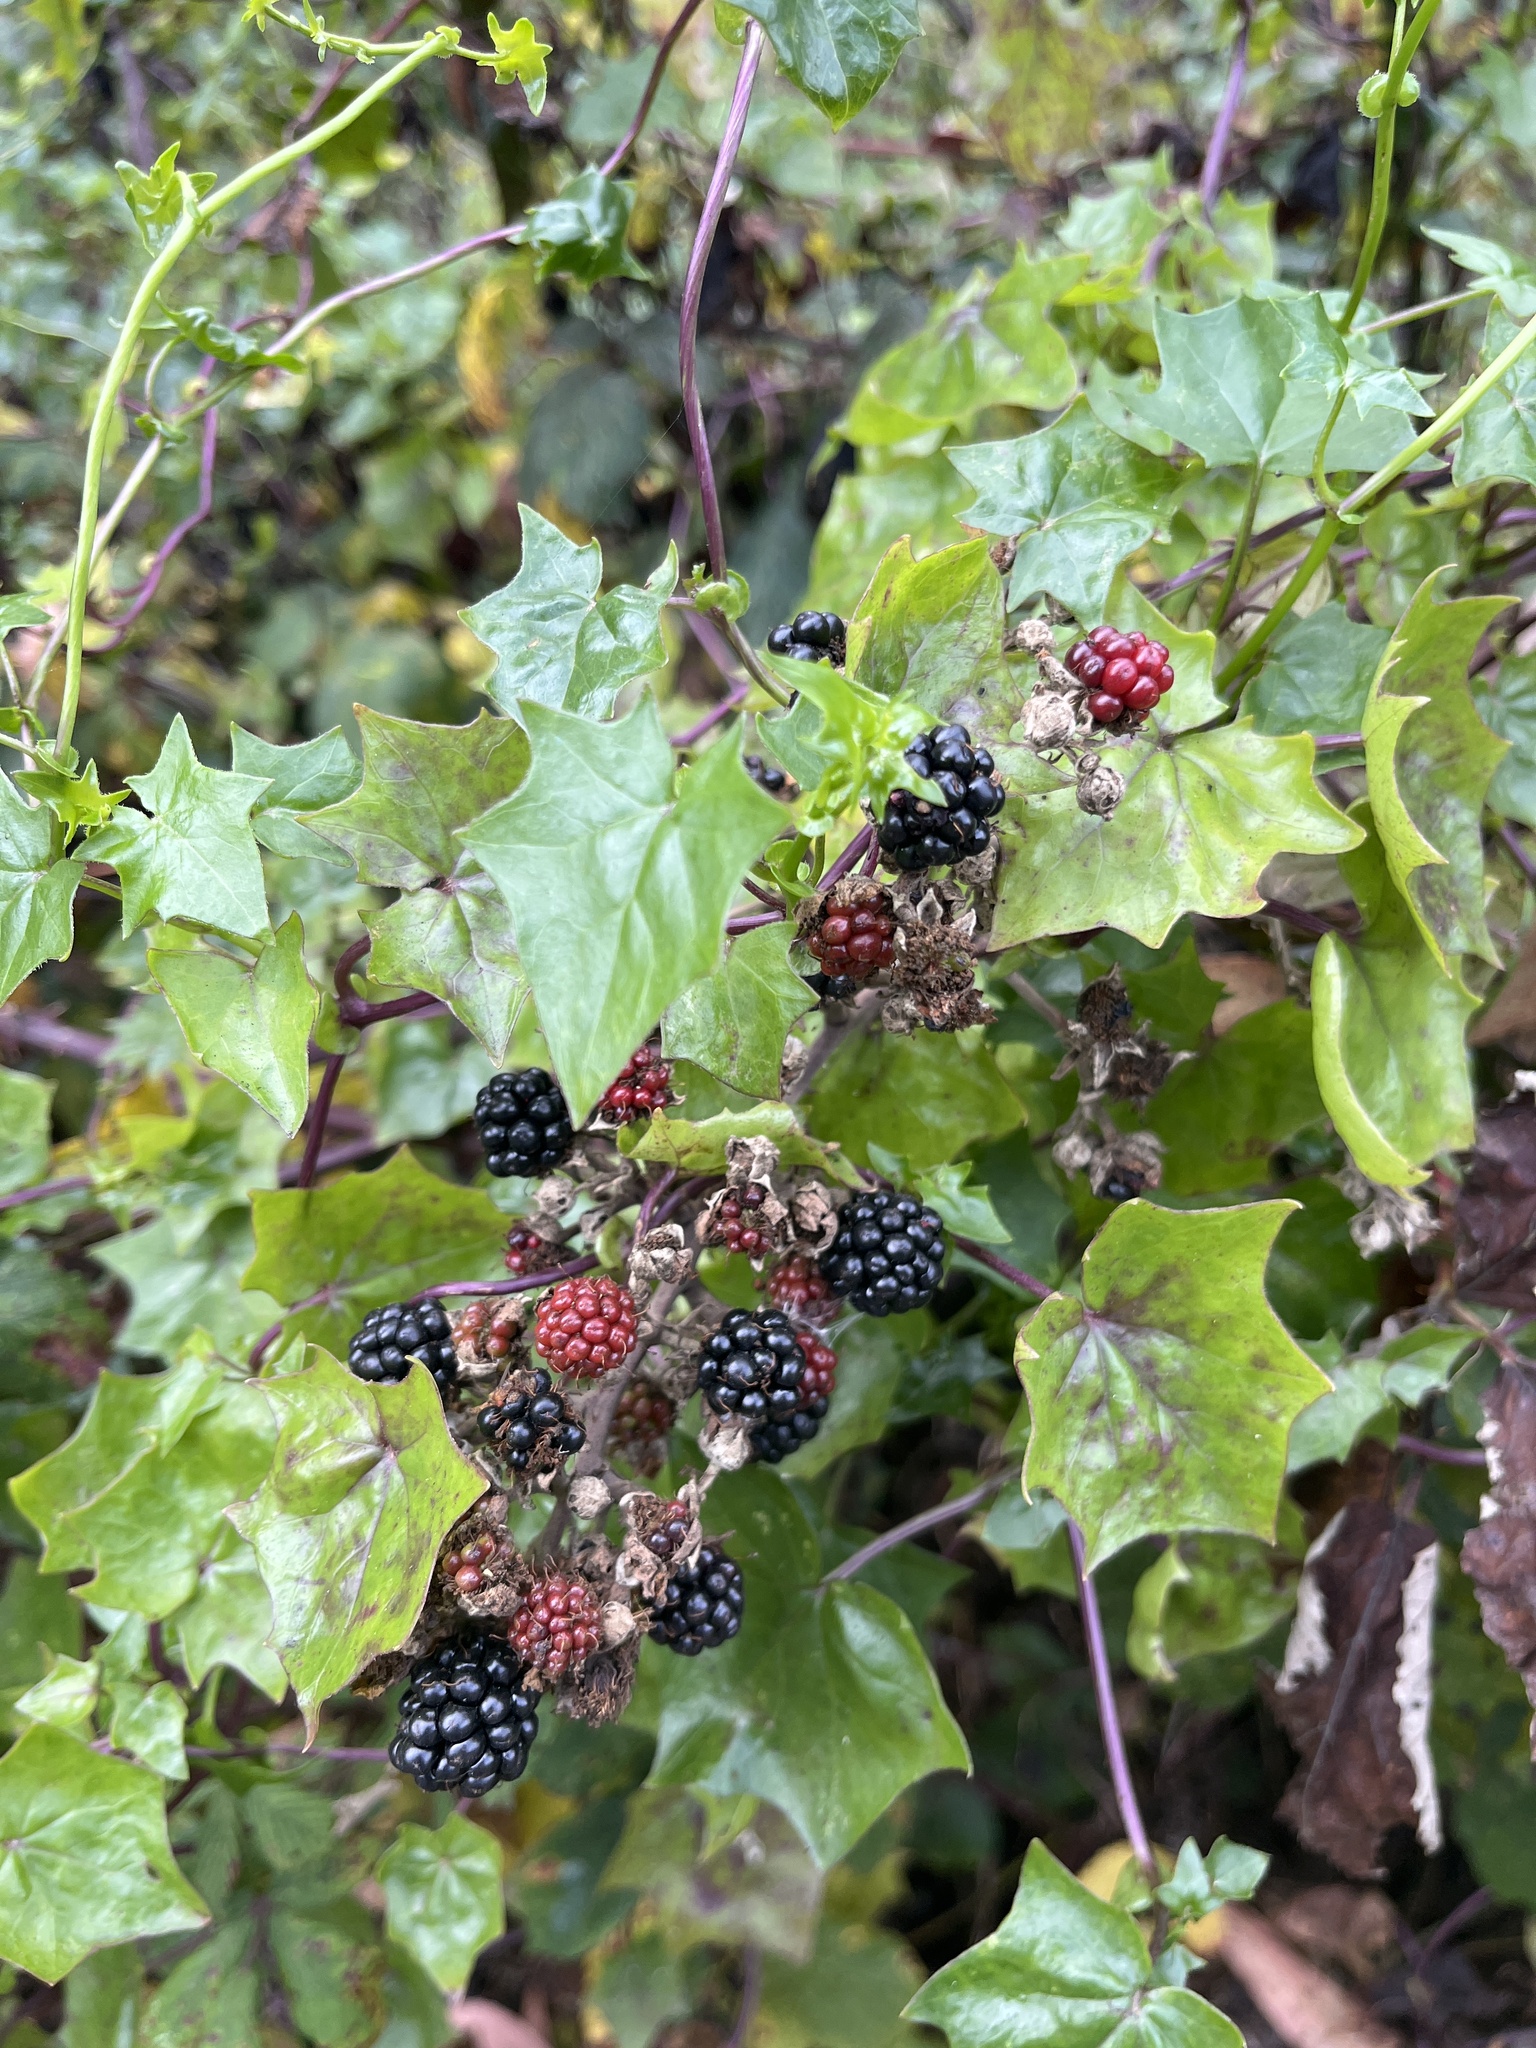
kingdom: Plantae
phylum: Tracheophyta
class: Magnoliopsida
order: Asterales
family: Asteraceae
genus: Delairea
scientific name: Delairea odorata
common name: Cape-ivy
